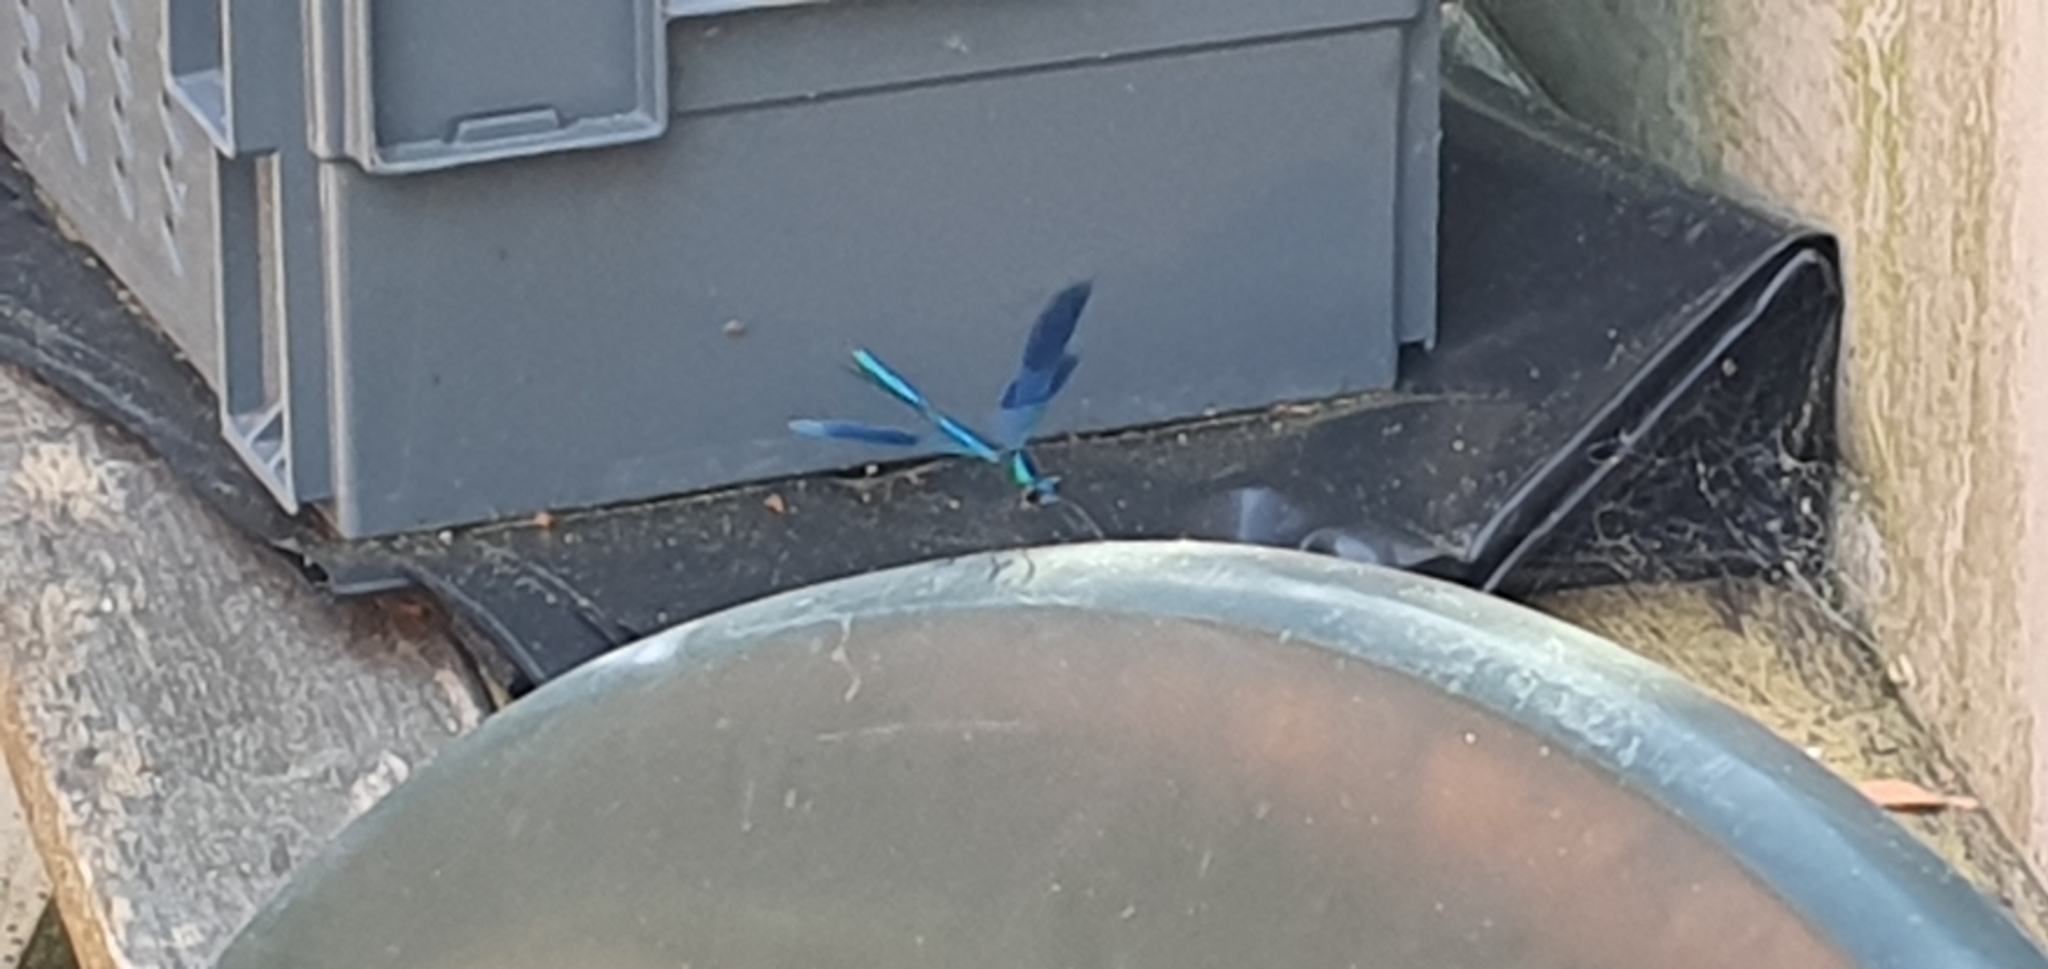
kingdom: Animalia
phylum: Arthropoda
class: Insecta
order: Odonata
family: Calopterygidae
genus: Calopteryx
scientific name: Calopteryx splendens
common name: Banded demoiselle
